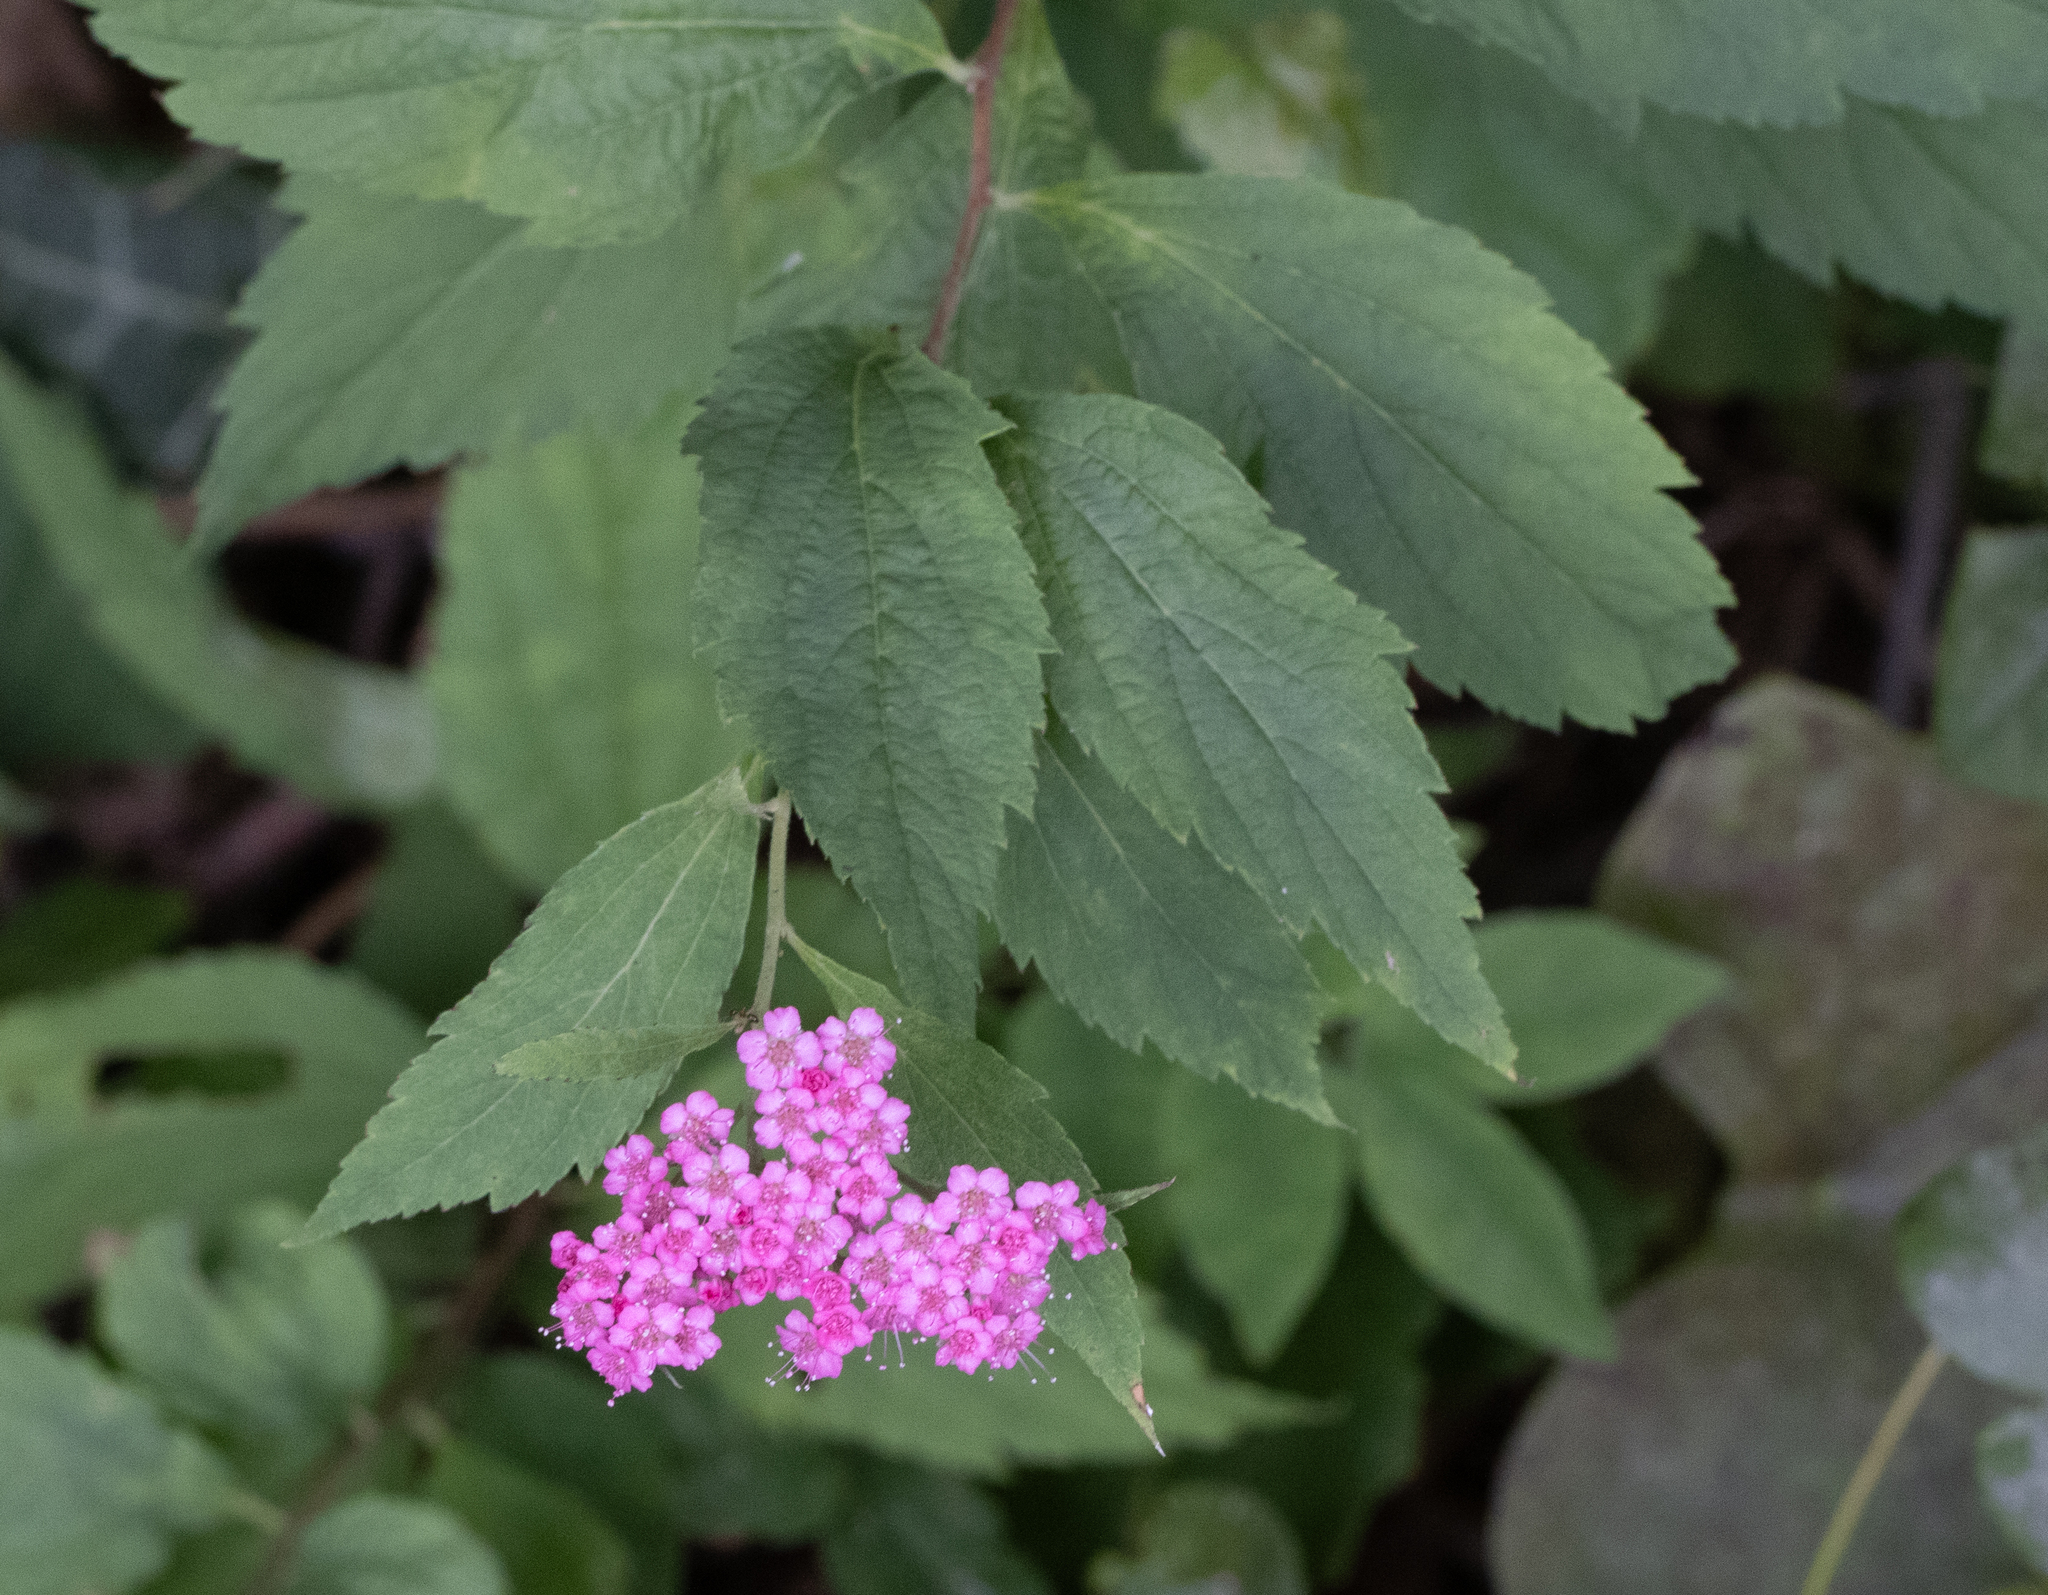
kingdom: Plantae
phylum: Tracheophyta
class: Magnoliopsida
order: Rosales
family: Rosaceae
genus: Spiraea
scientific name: Spiraea japonica
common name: Japanese spiraea
